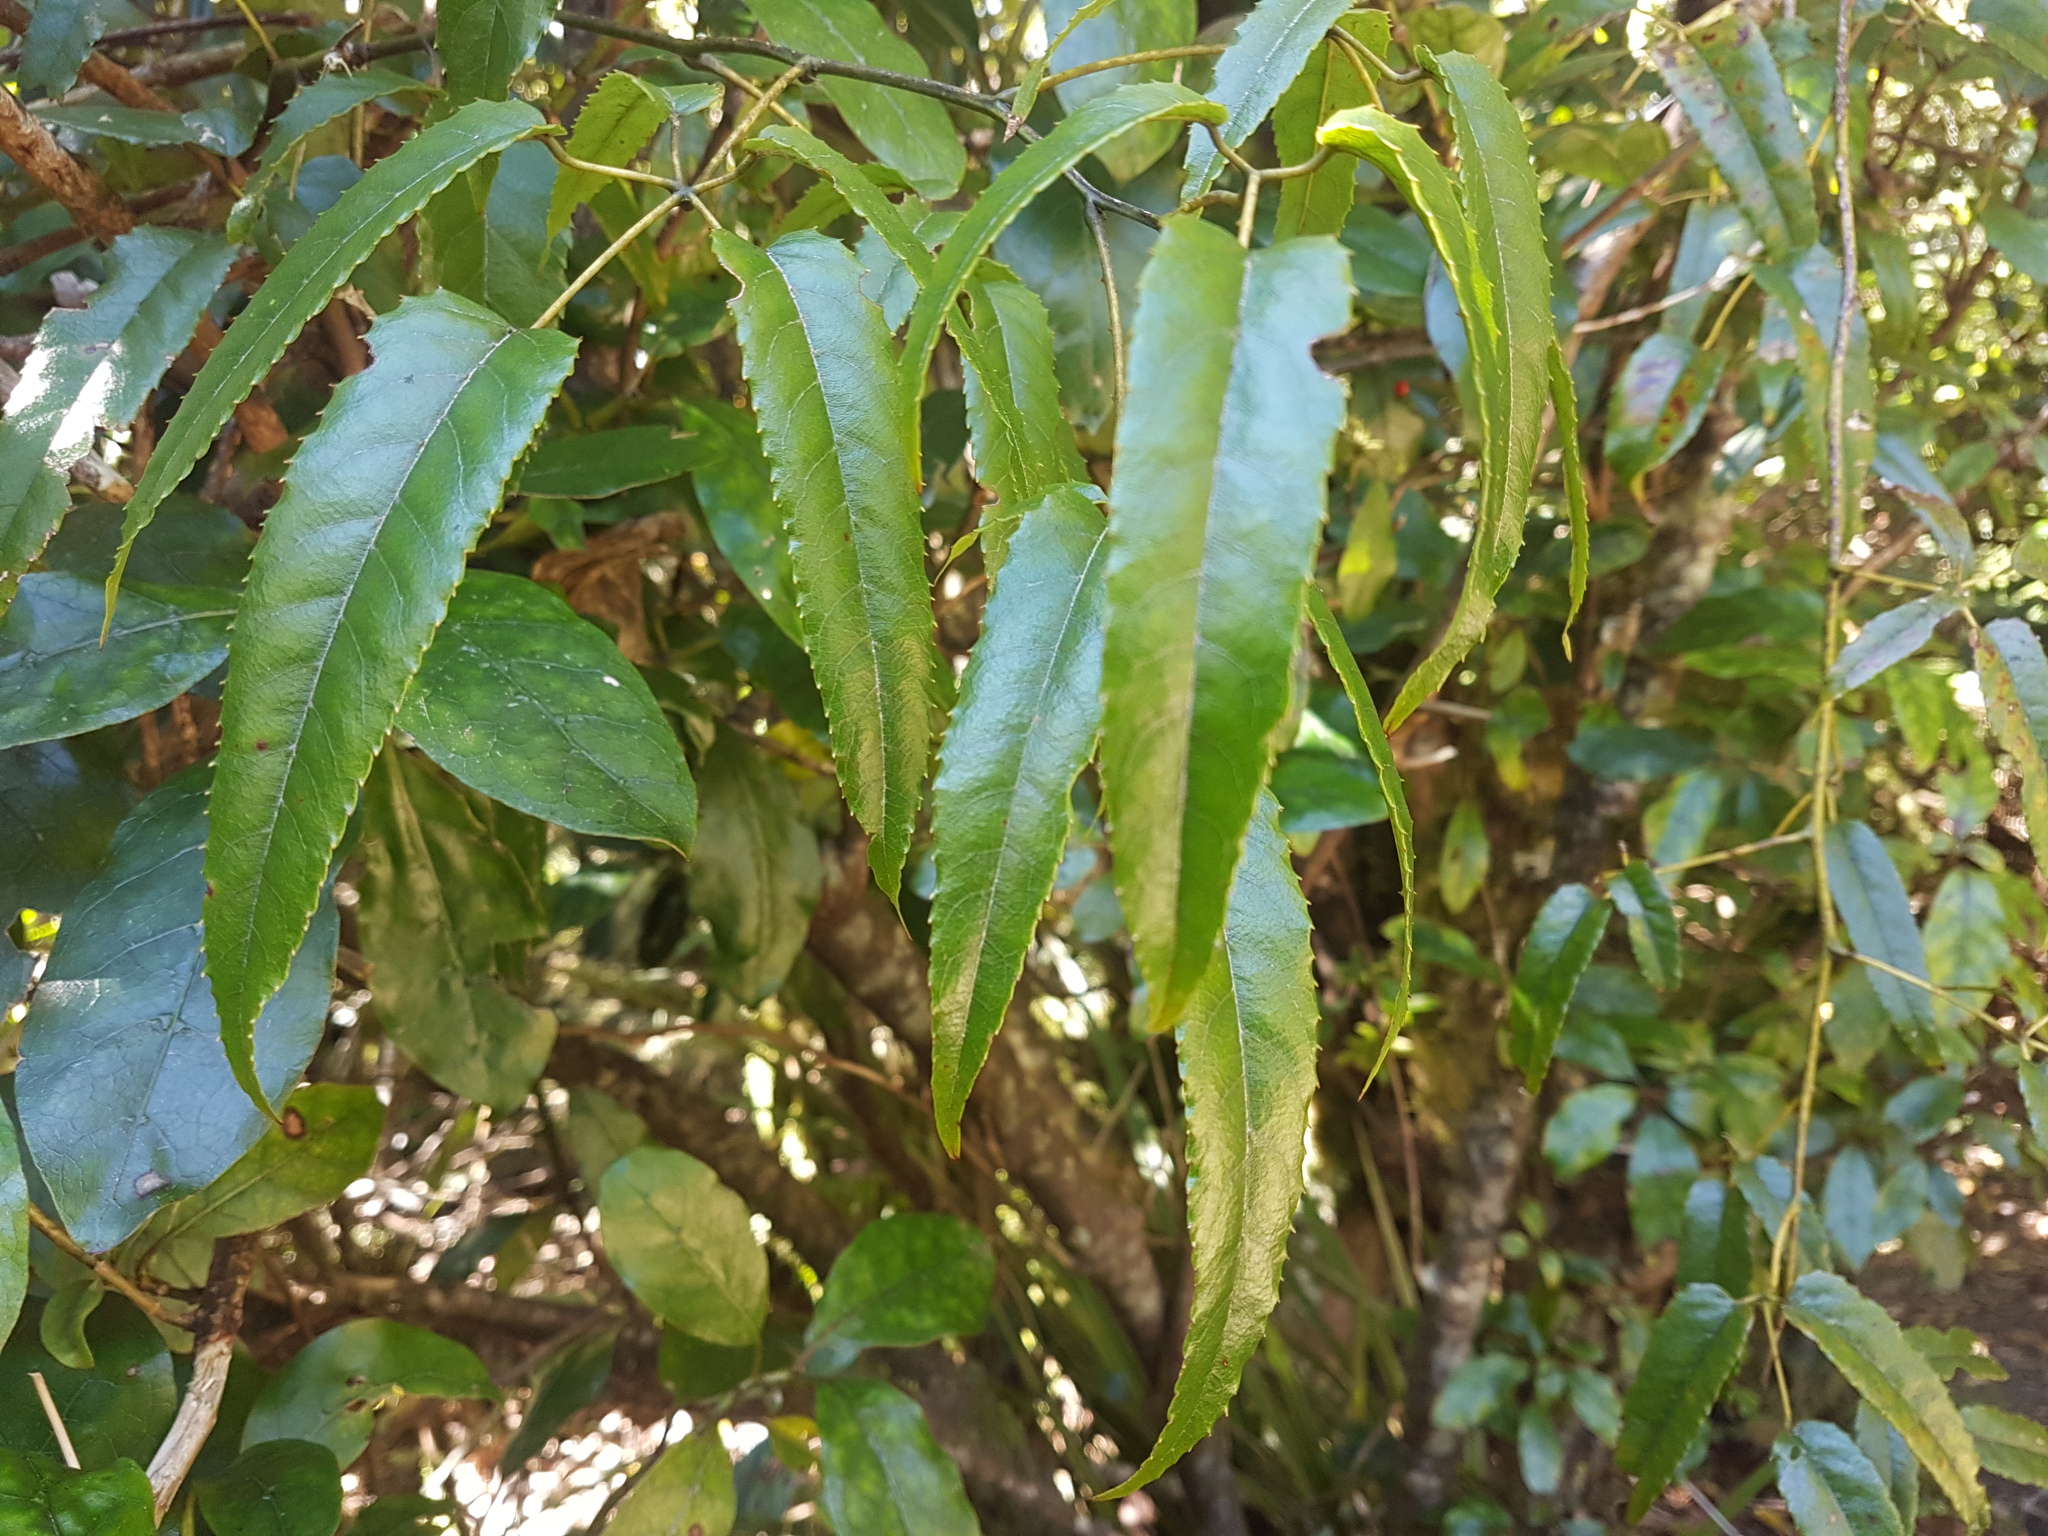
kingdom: Plantae
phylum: Tracheophyta
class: Magnoliopsida
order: Rosales
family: Rosaceae
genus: Rubus
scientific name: Rubus cissoides
